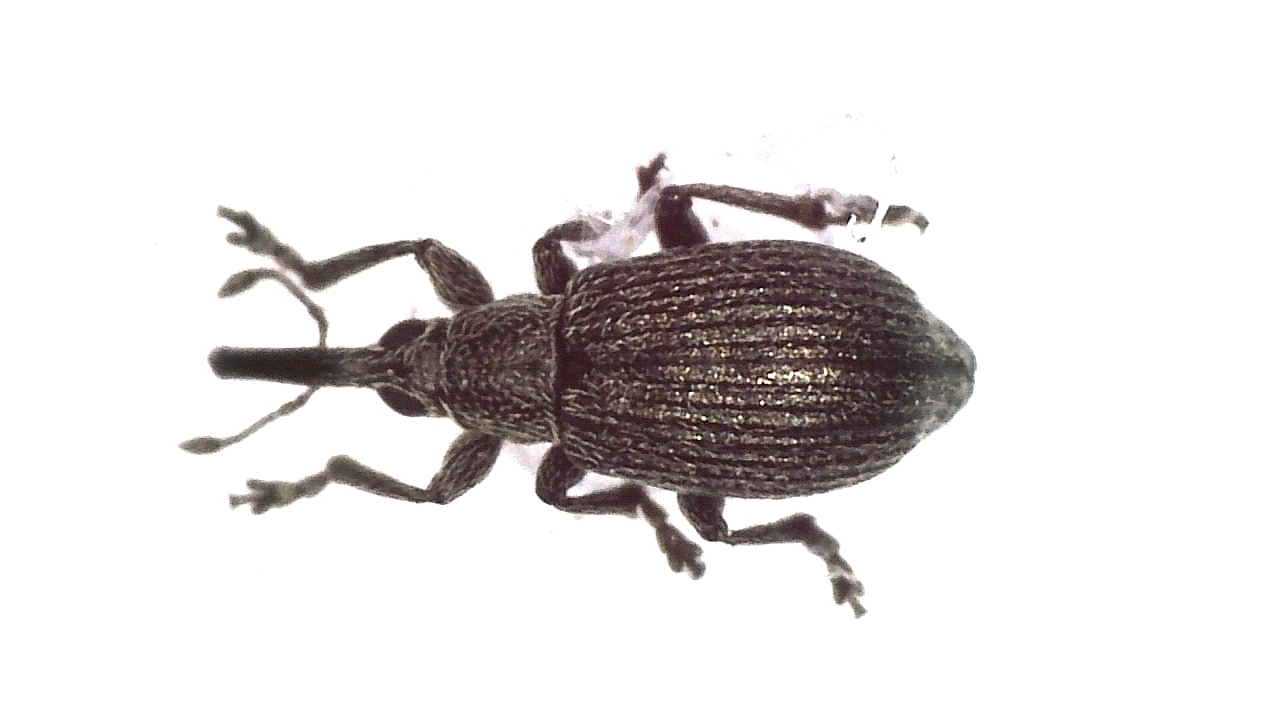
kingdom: Animalia
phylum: Arthropoda
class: Insecta
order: Coleoptera
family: Brentidae
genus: Betulapion
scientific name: Betulapion simile
